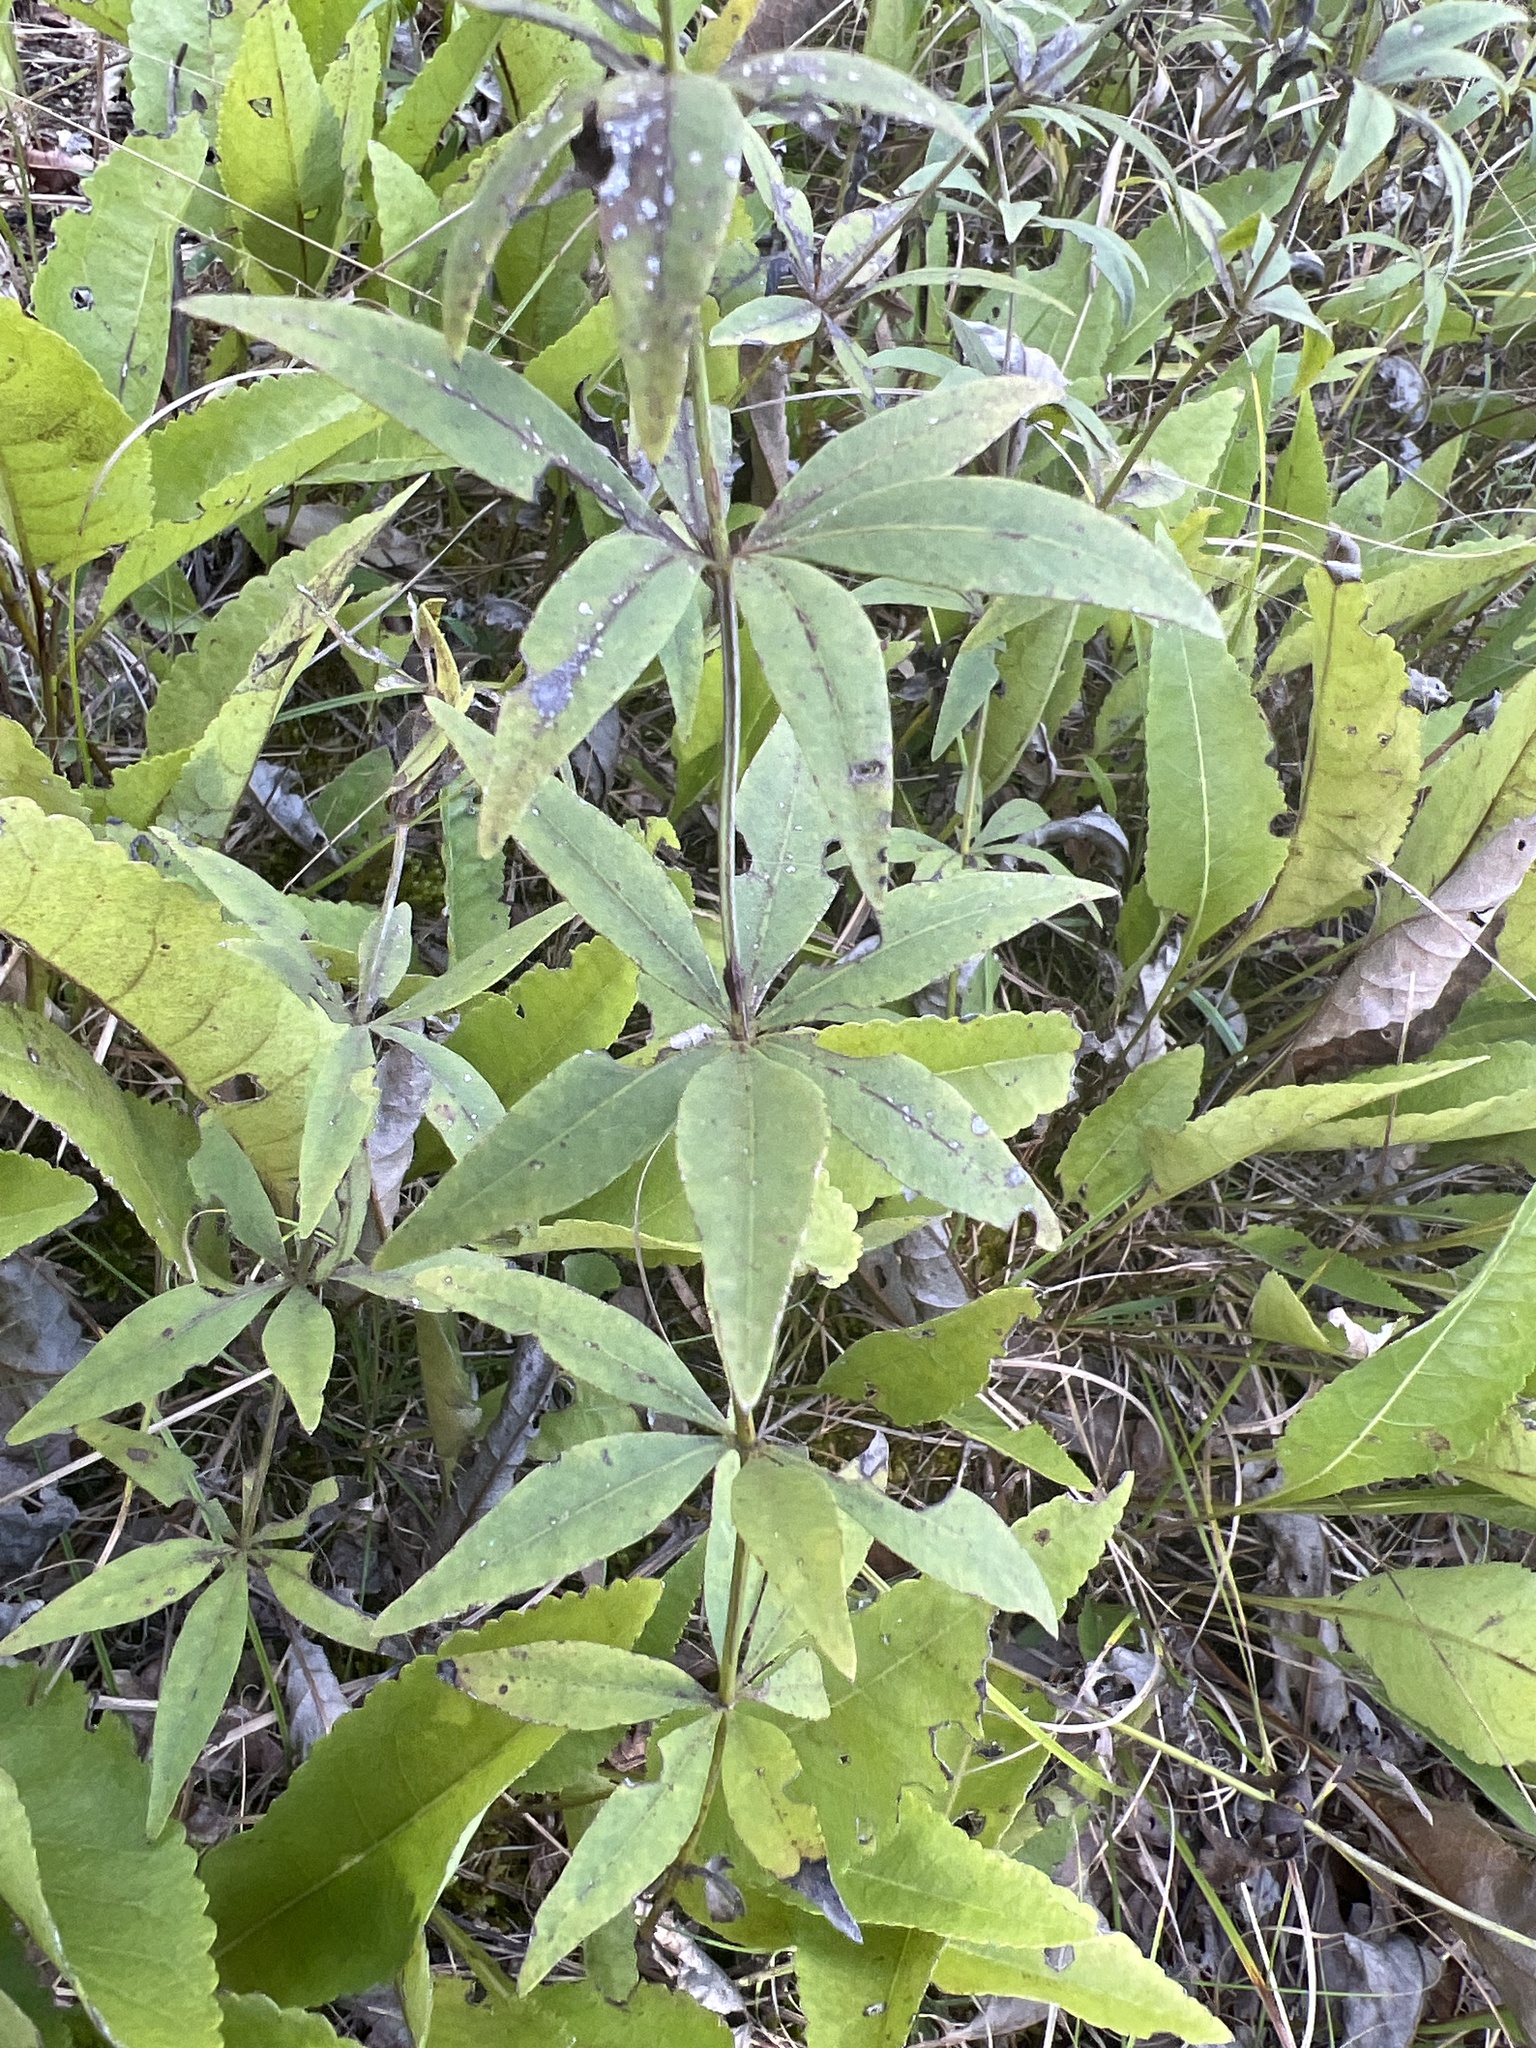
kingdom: Plantae
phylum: Tracheophyta
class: Magnoliopsida
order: Asterales
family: Asteraceae
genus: Coreopsis
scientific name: Coreopsis major
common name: Forest tickseed
